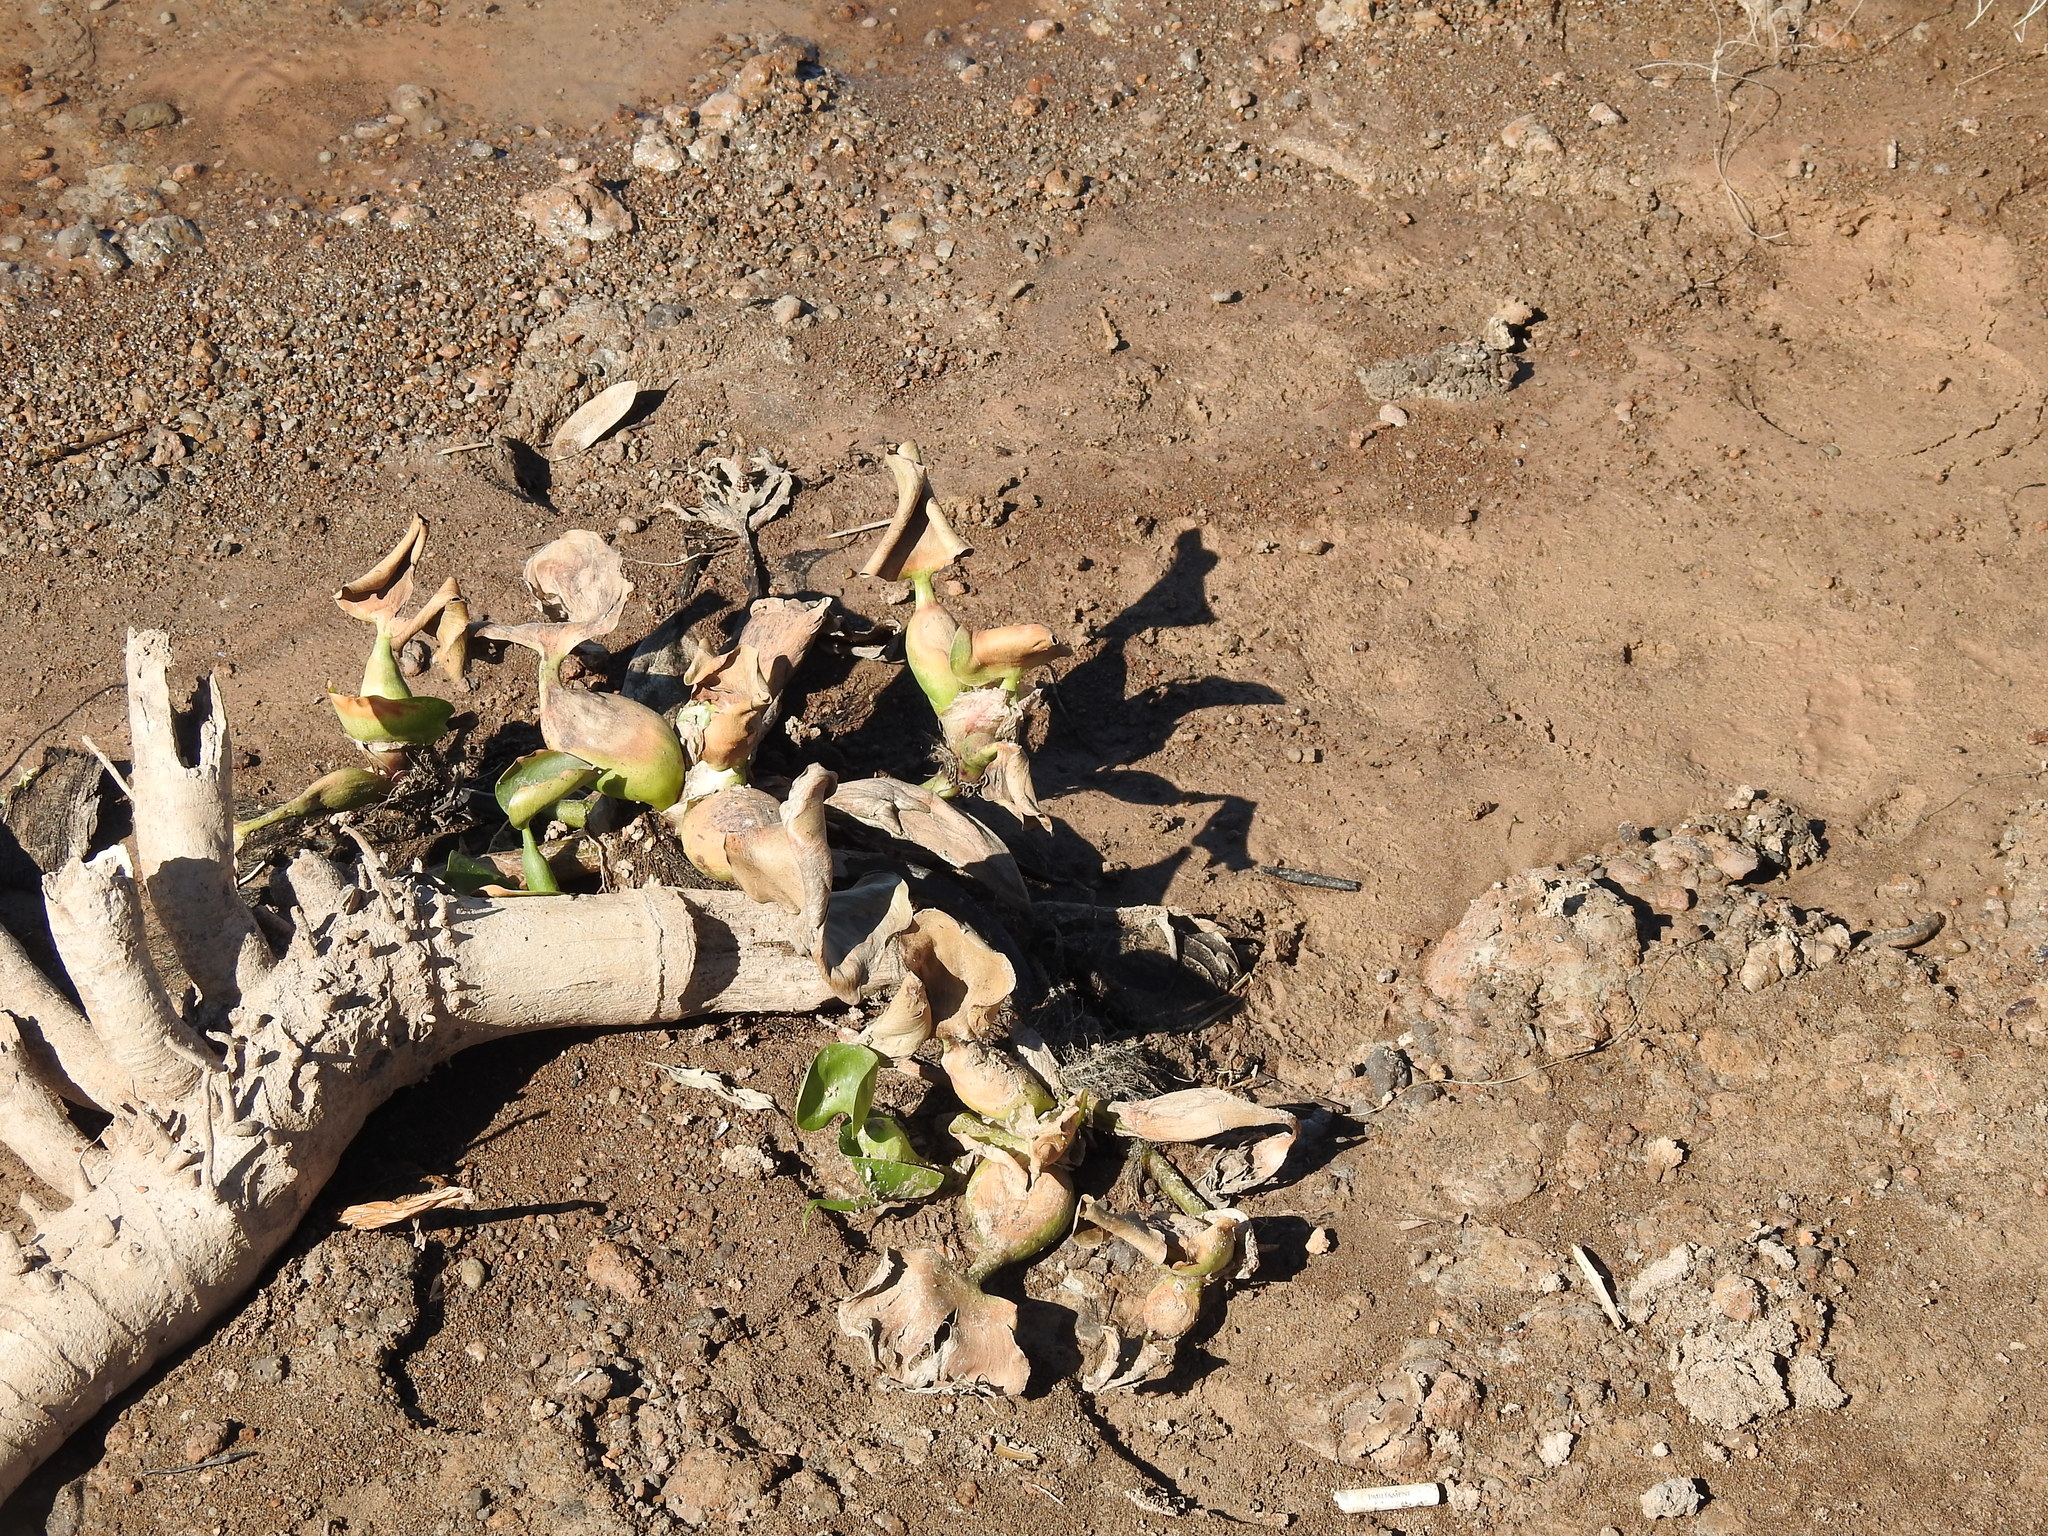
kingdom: Plantae
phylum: Tracheophyta
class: Liliopsida
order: Commelinales
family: Pontederiaceae
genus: Pontederia
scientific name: Pontederia crassipes
